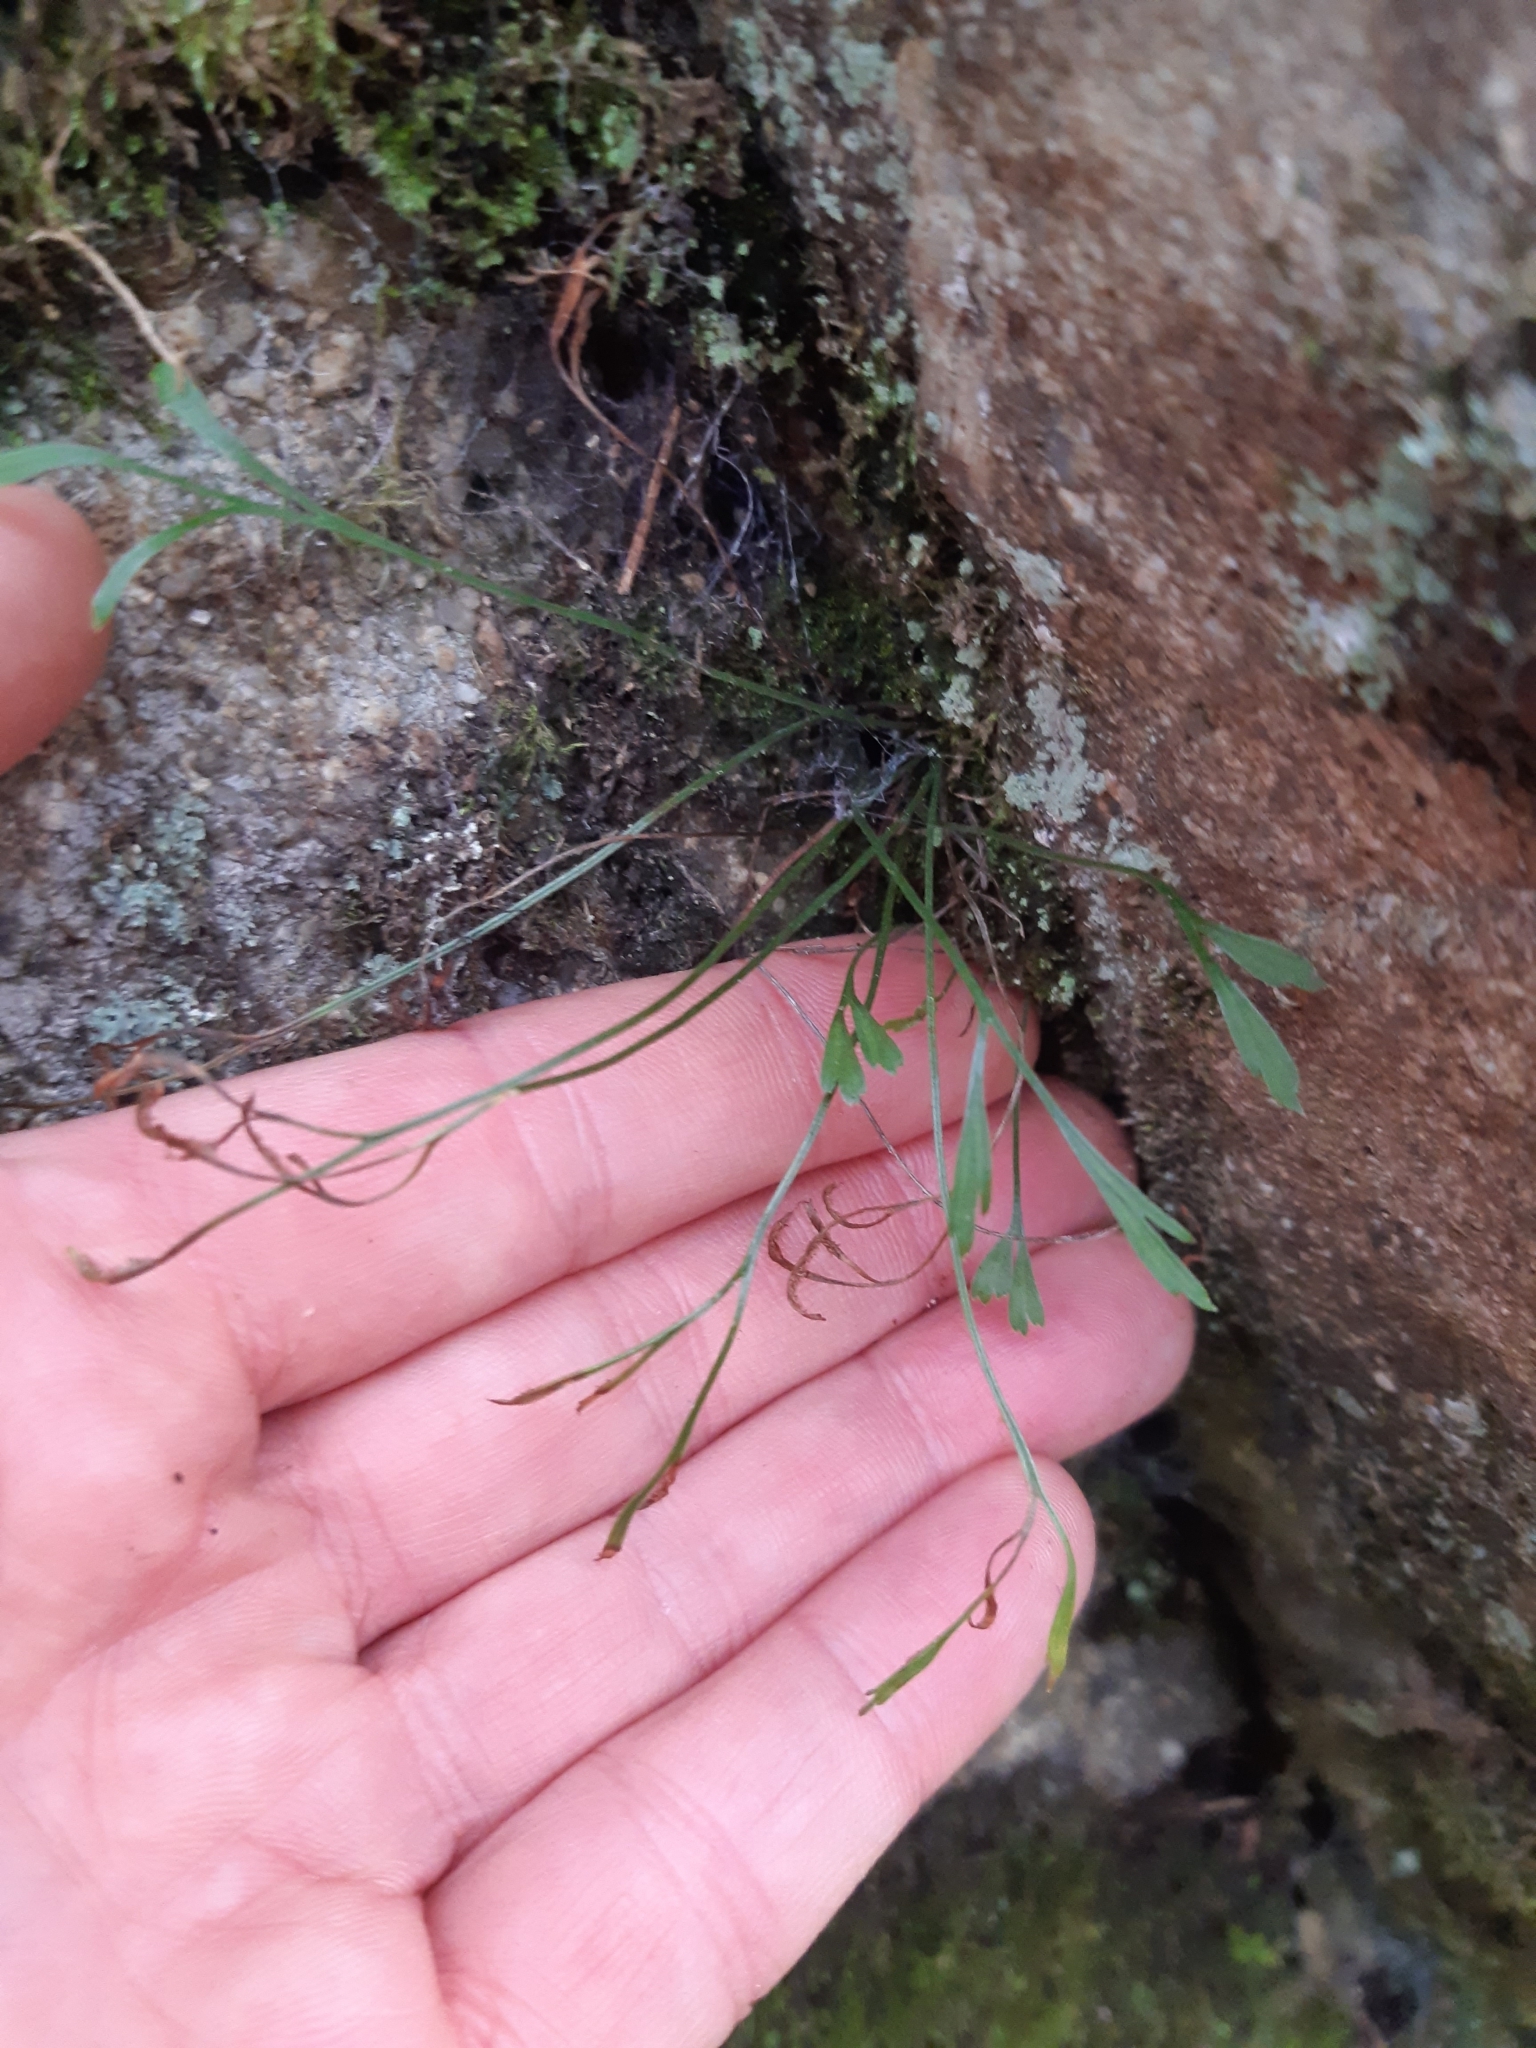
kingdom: Plantae
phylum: Tracheophyta
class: Polypodiopsida
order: Polypodiales
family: Aspleniaceae
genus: Asplenium
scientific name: Asplenium septentrionale
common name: Forked spleenwort
